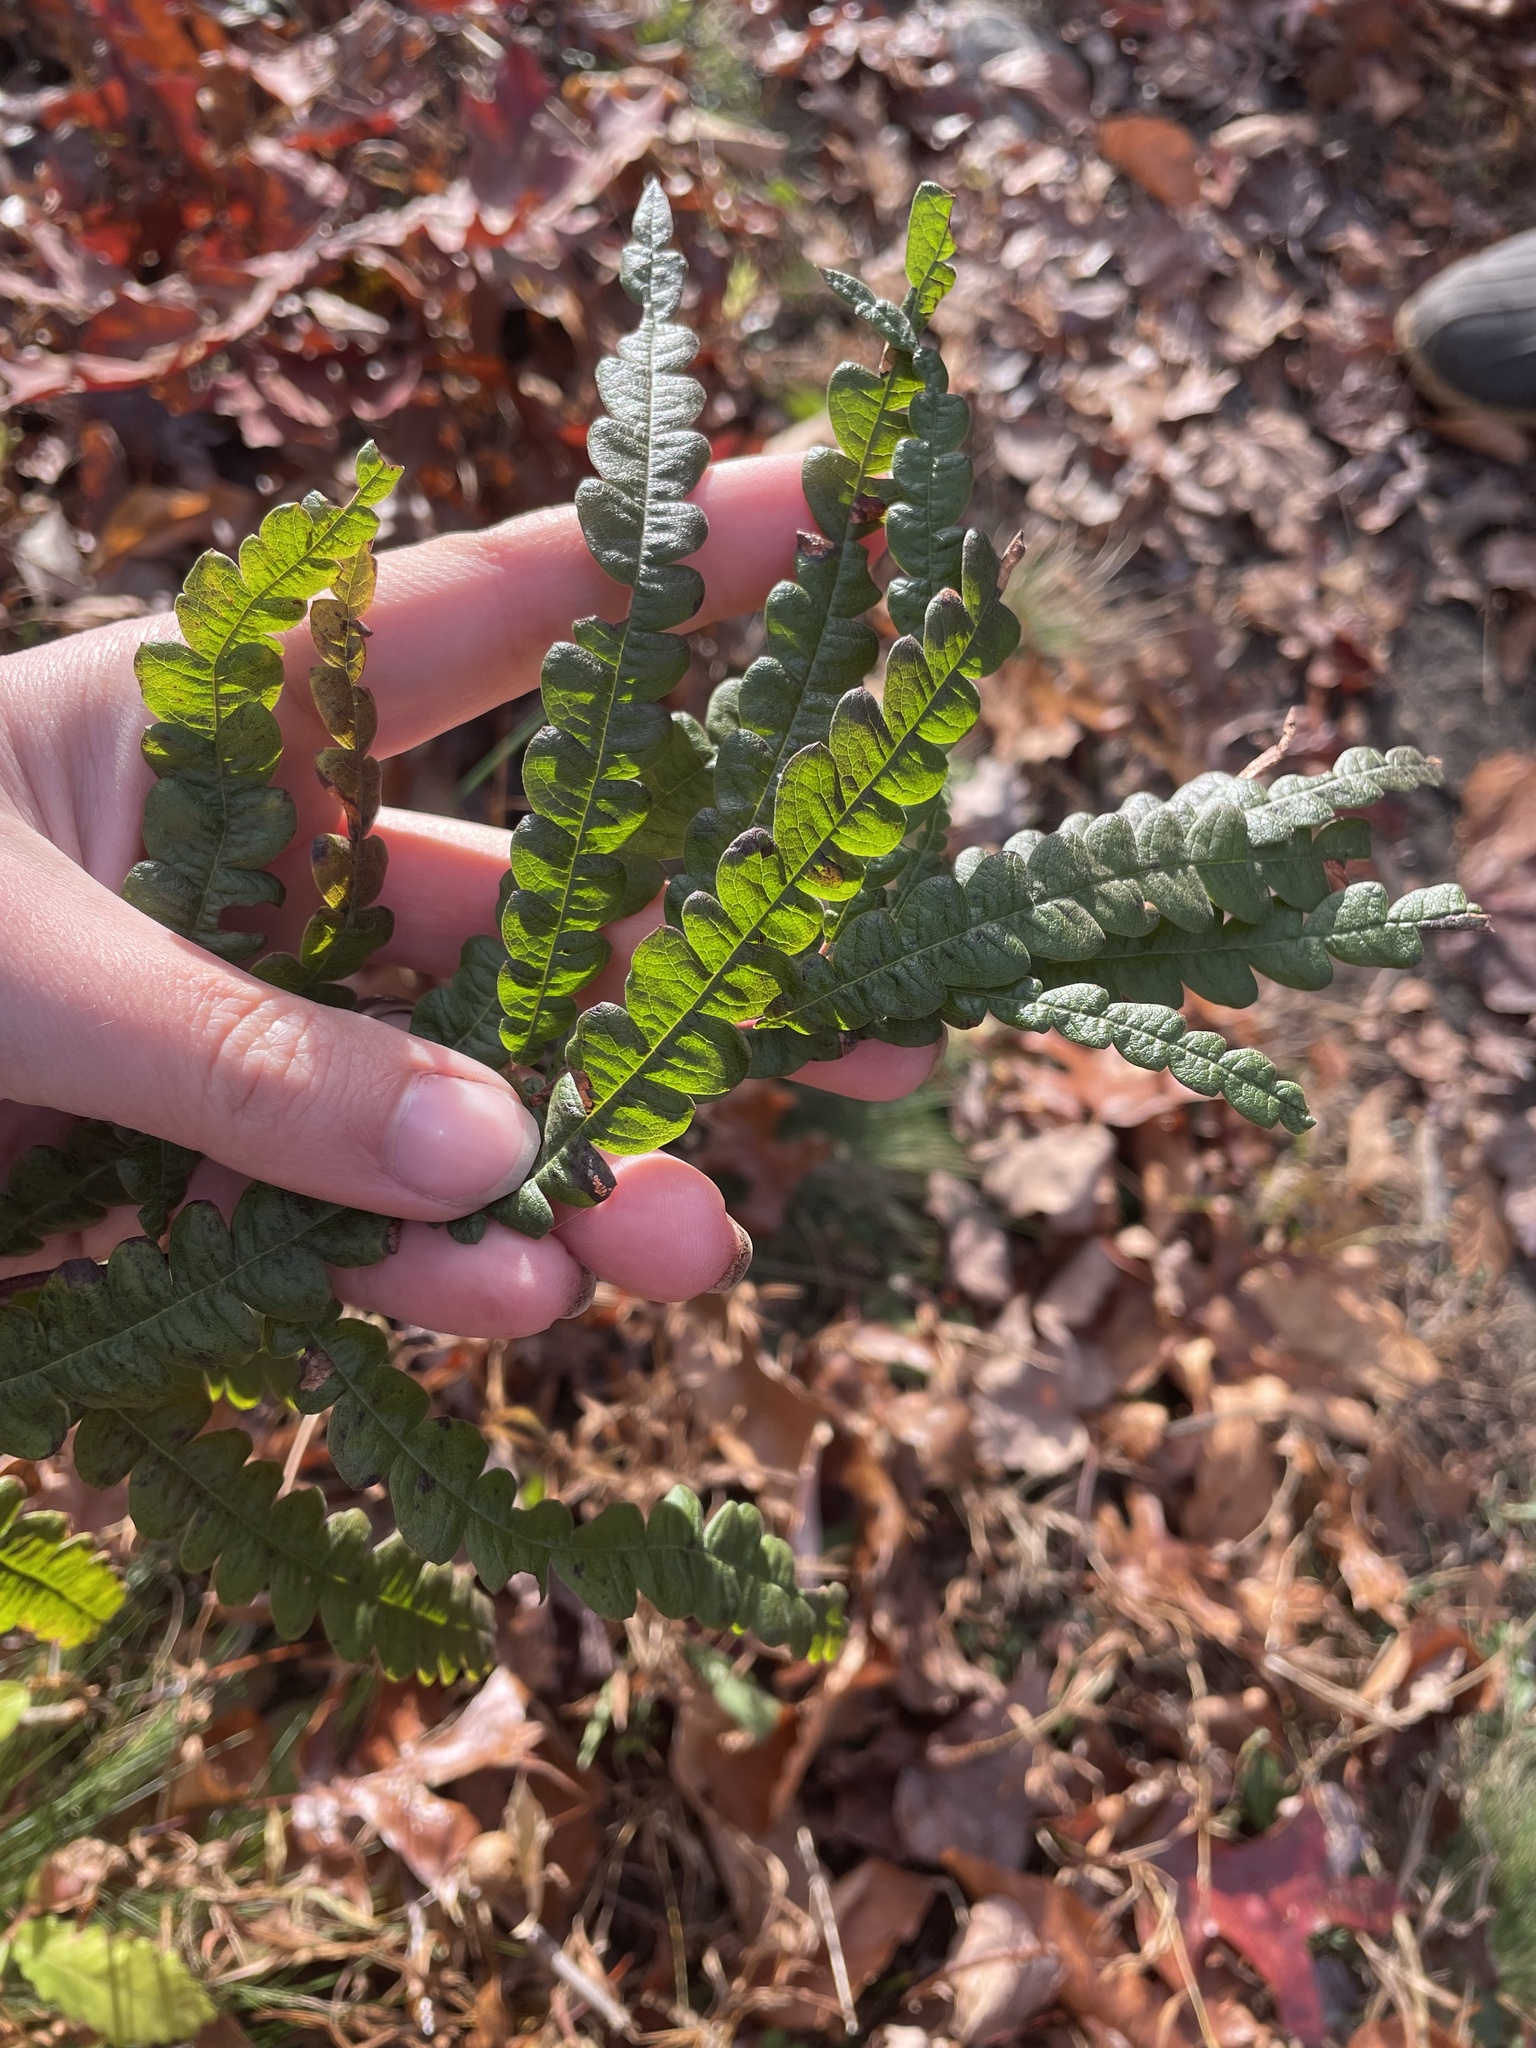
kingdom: Plantae
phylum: Tracheophyta
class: Magnoliopsida
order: Fagales
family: Myricaceae
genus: Comptonia
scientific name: Comptonia peregrina
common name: Sweet-fern
